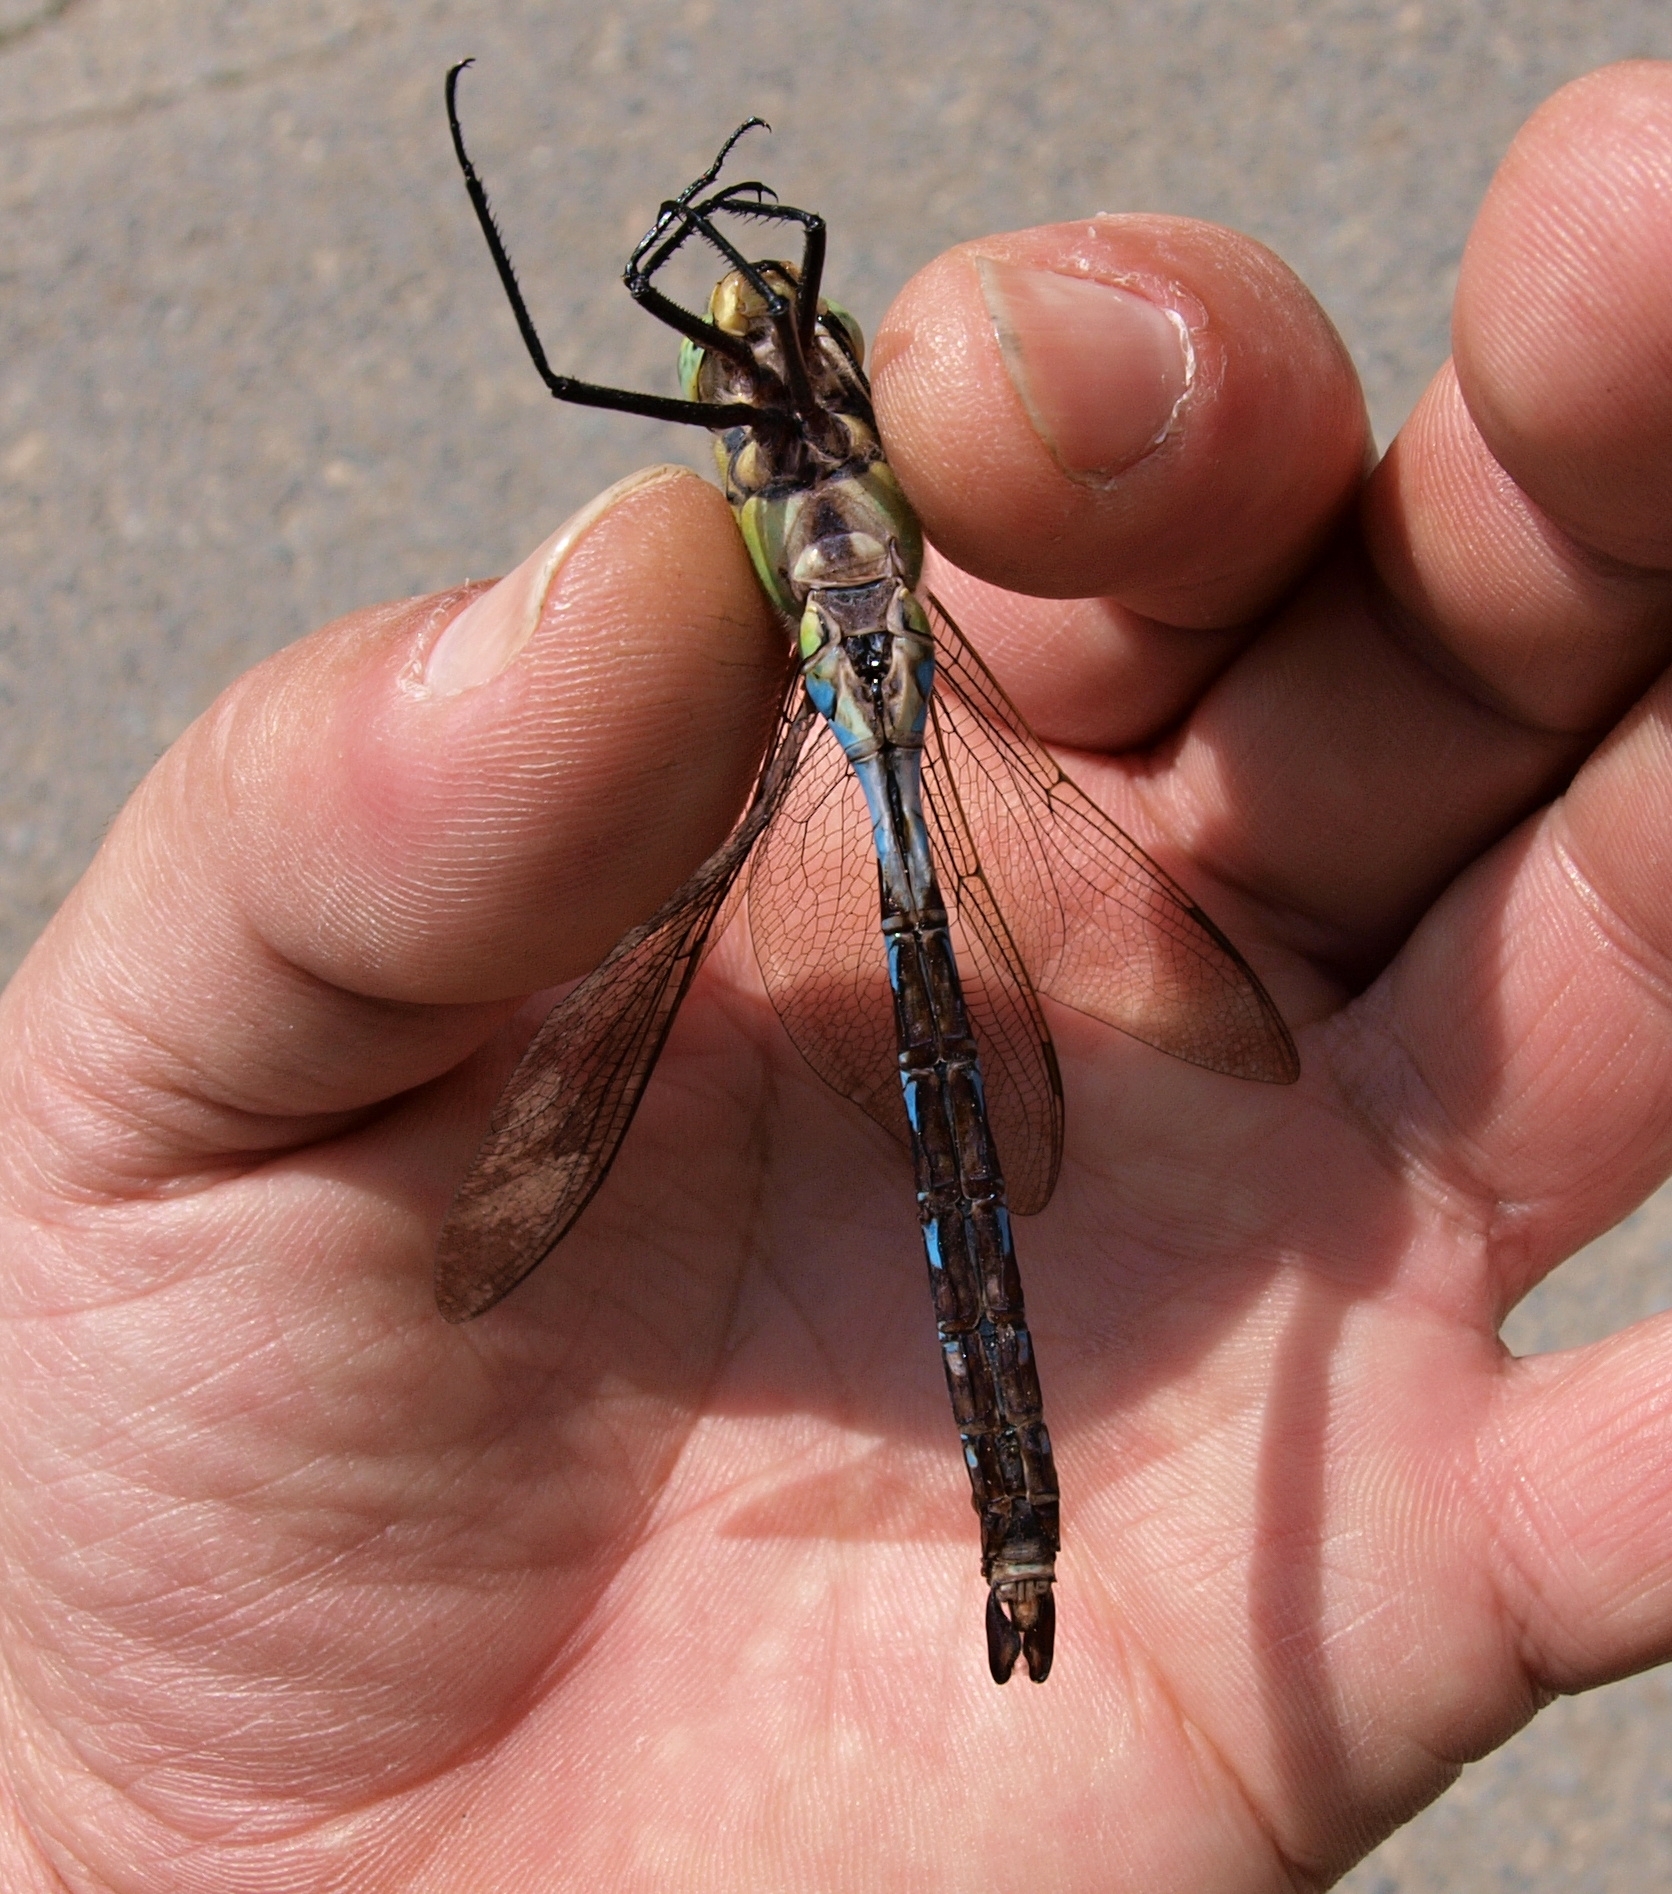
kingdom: Animalia
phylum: Arthropoda
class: Insecta
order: Odonata
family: Aeshnidae
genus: Anax
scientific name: Anax imperator
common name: Emperor dragonfly
